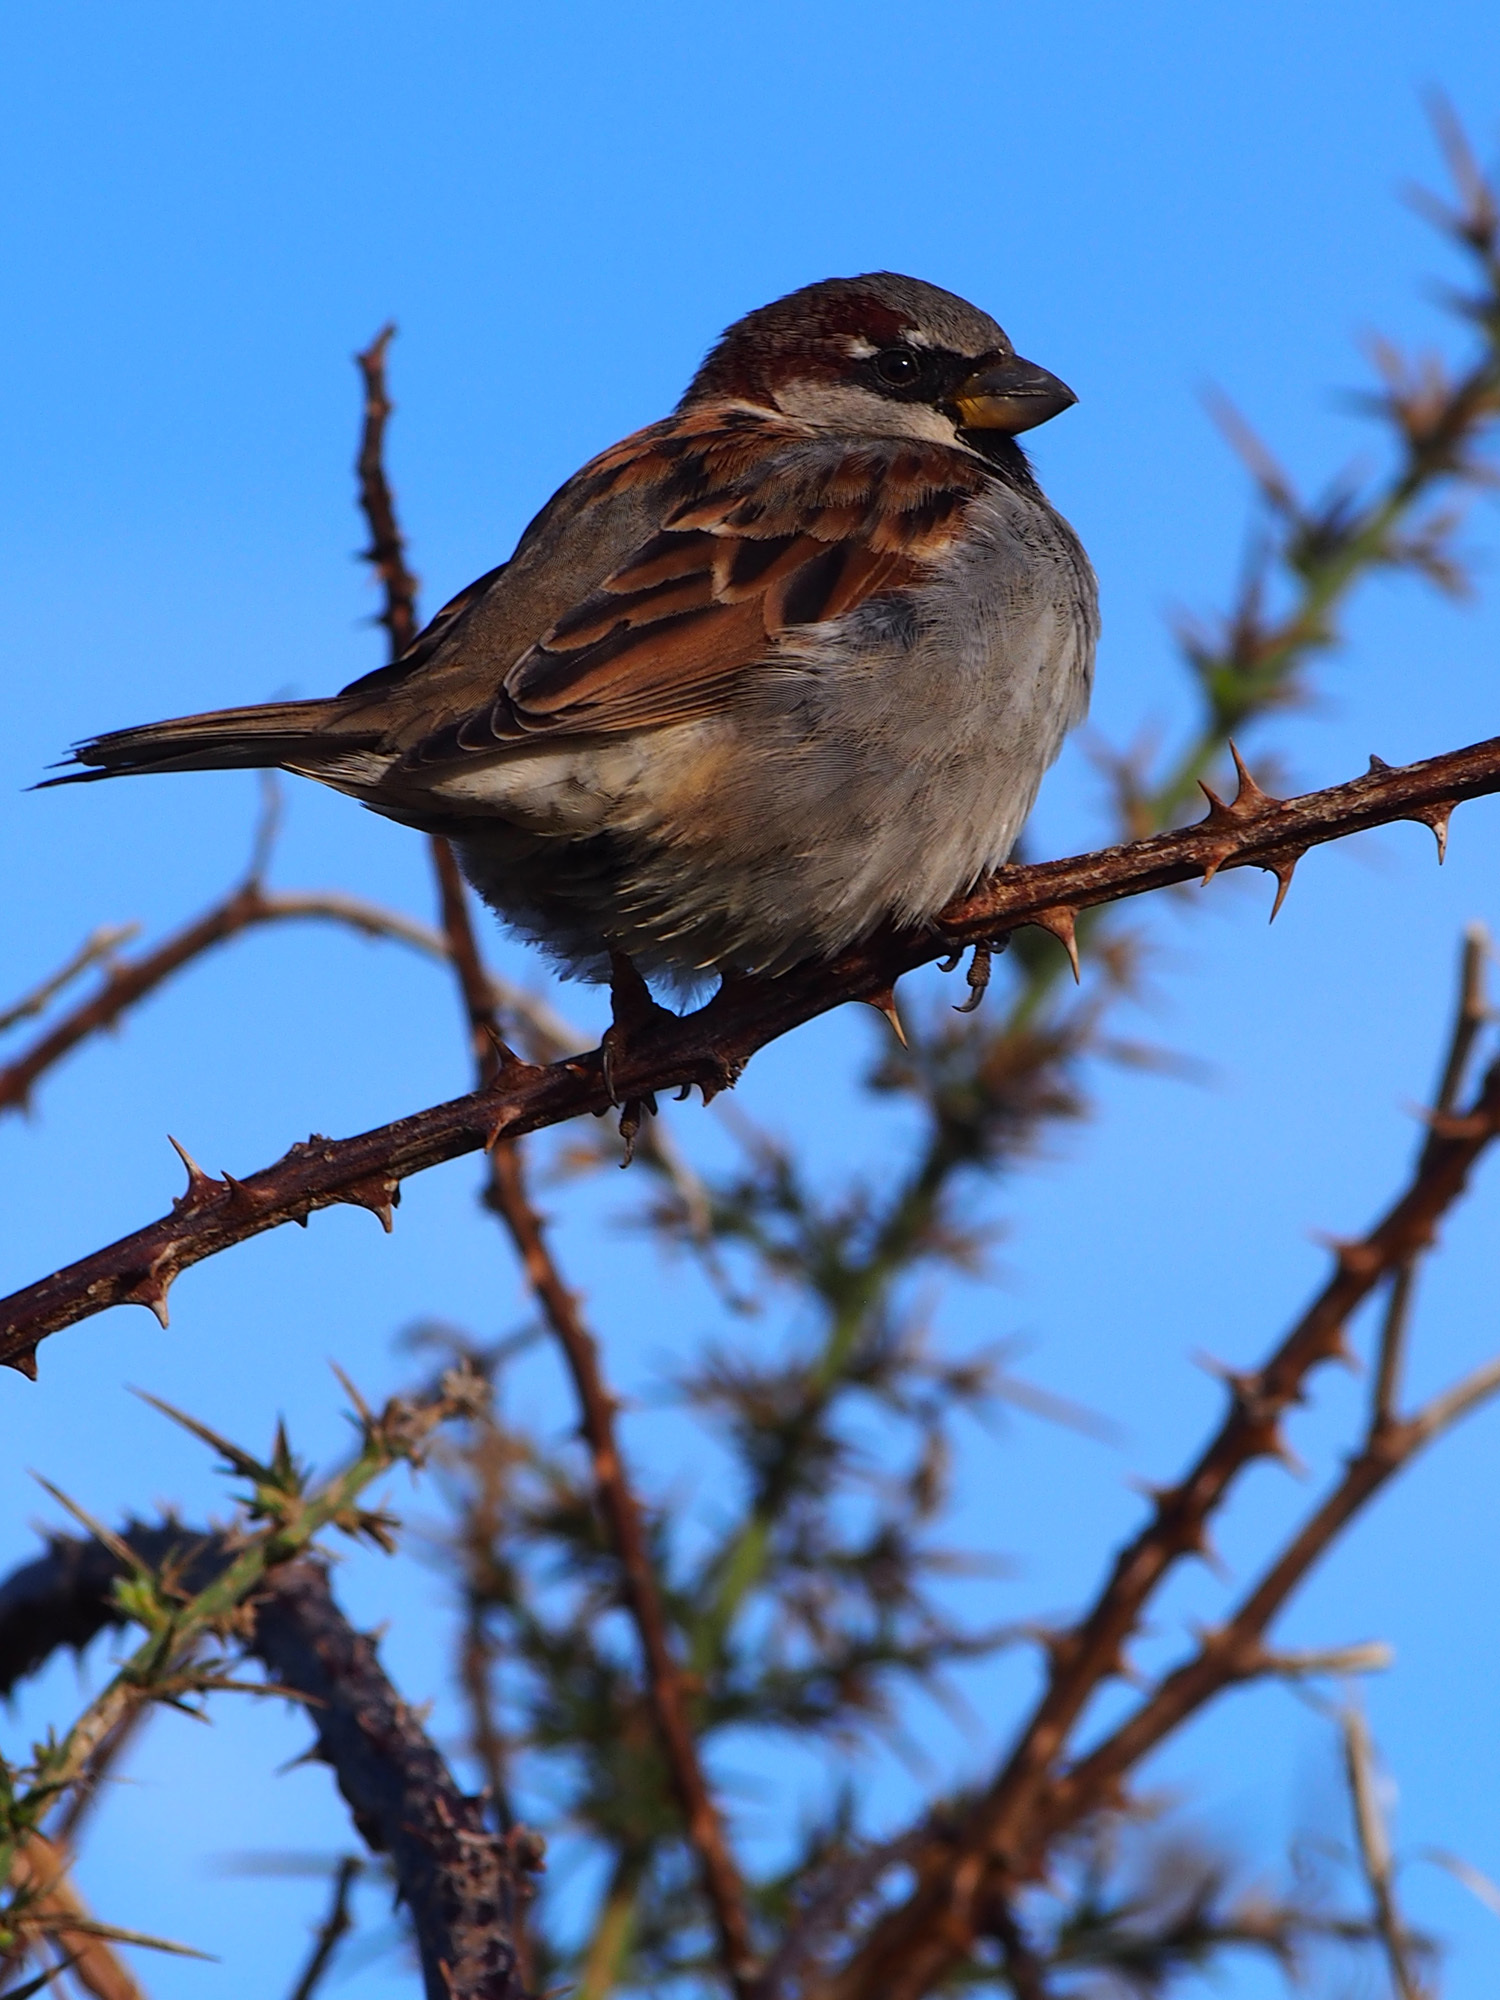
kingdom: Animalia
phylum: Chordata
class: Aves
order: Passeriformes
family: Passeridae
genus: Passer
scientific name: Passer domesticus
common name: House sparrow
